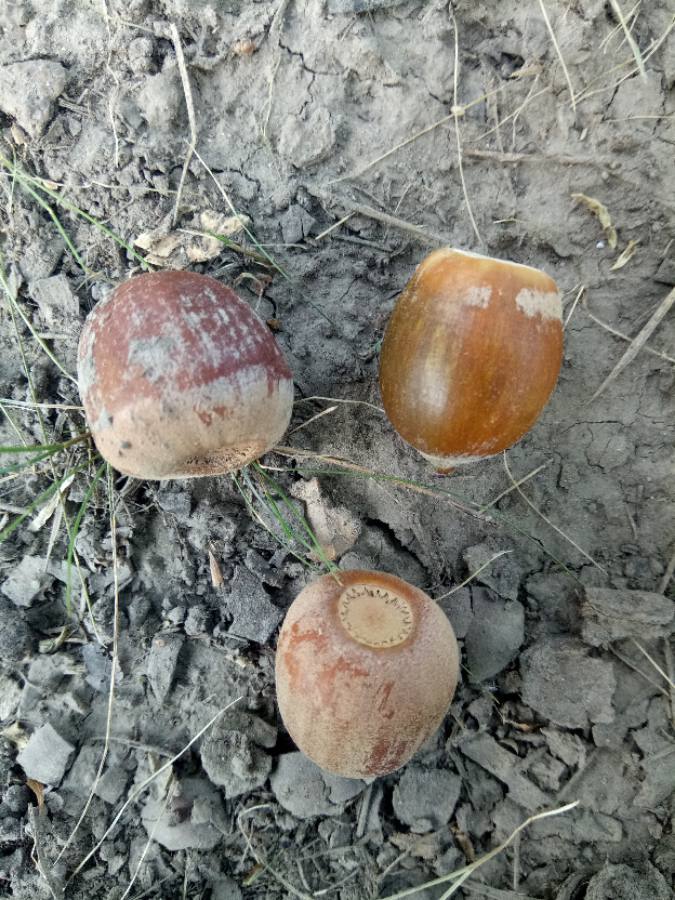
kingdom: Plantae
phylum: Tracheophyta
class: Magnoliopsida
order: Fagales
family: Fagaceae
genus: Quercus
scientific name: Quercus rubra
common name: Red oak
